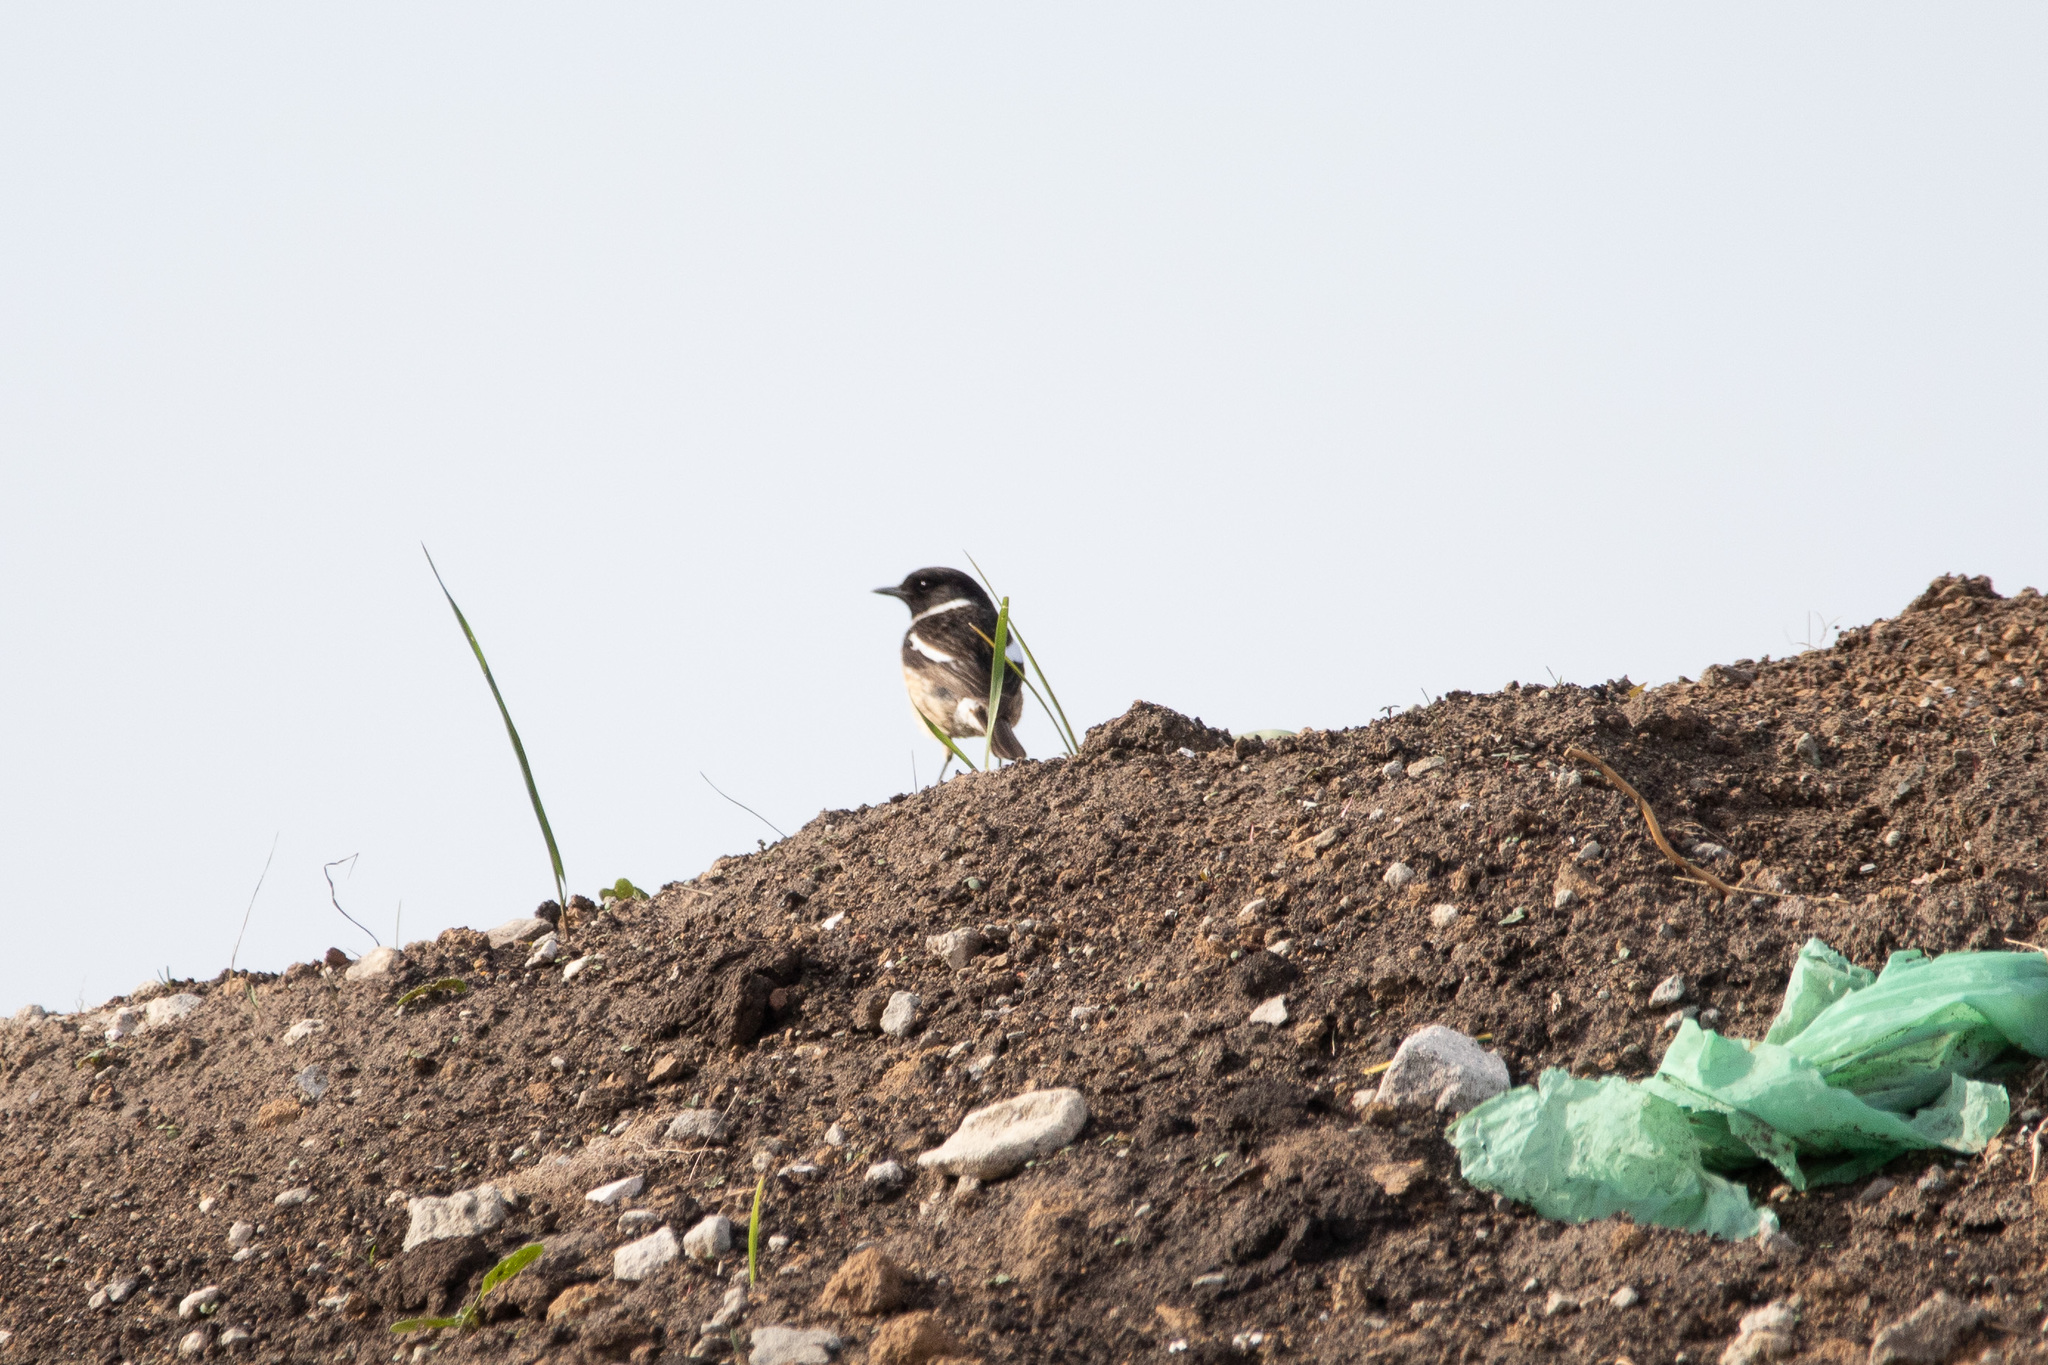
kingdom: Animalia
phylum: Chordata
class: Aves
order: Passeriformes
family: Muscicapidae
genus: Saxicola
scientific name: Saxicola rubicola
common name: European stonechat
